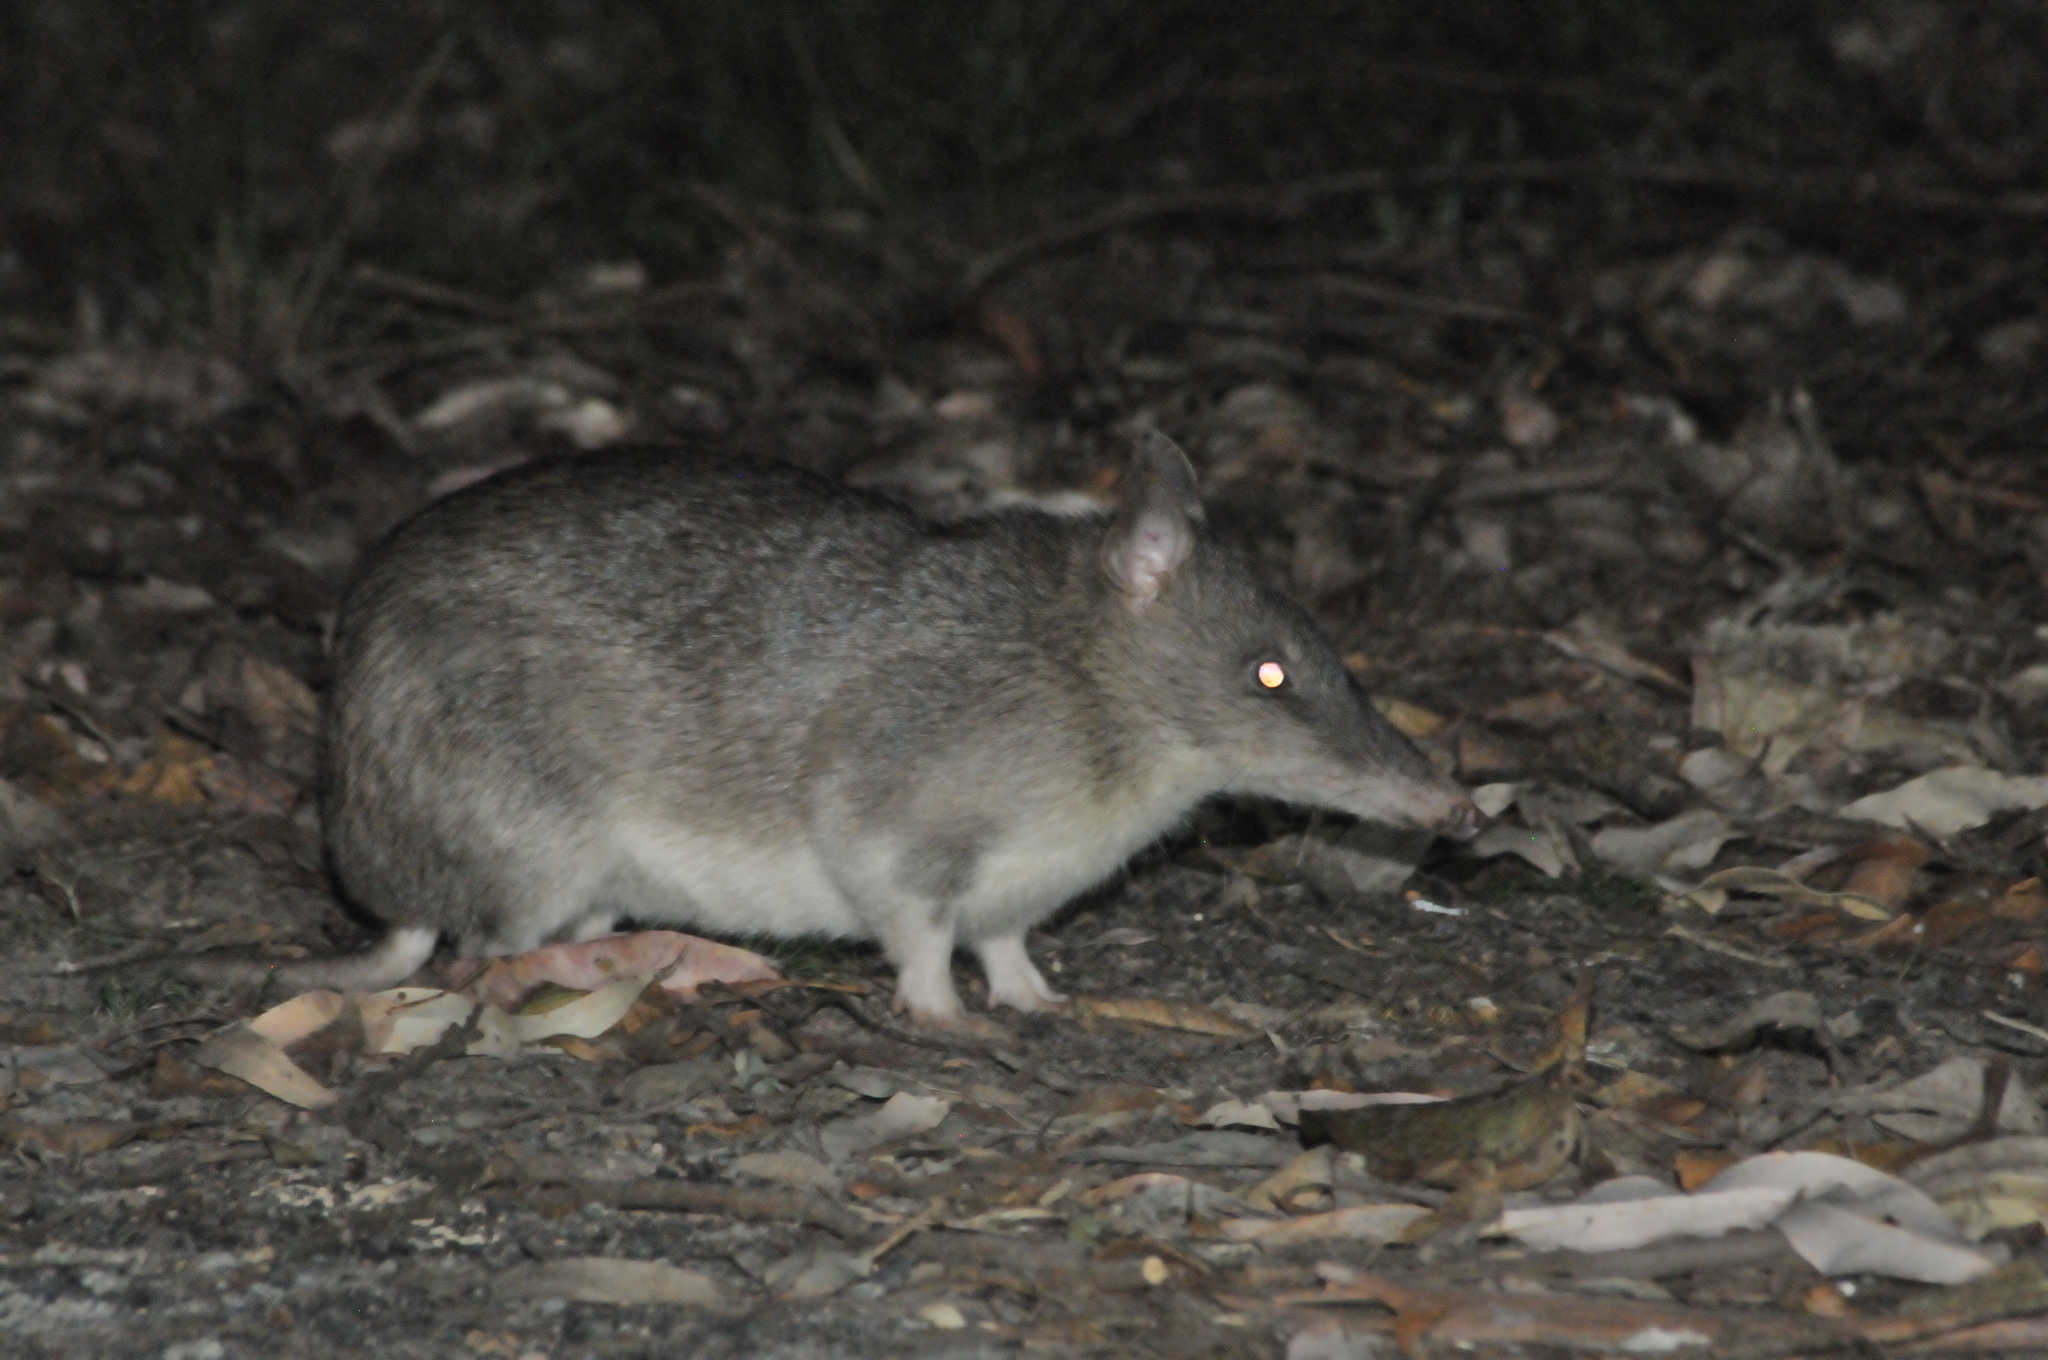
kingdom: Animalia
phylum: Chordata
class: Mammalia
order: Peramelemorphia
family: Peramelidae
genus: Perameles
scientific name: Perameles nasuta
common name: Long-nosed bandicoot
